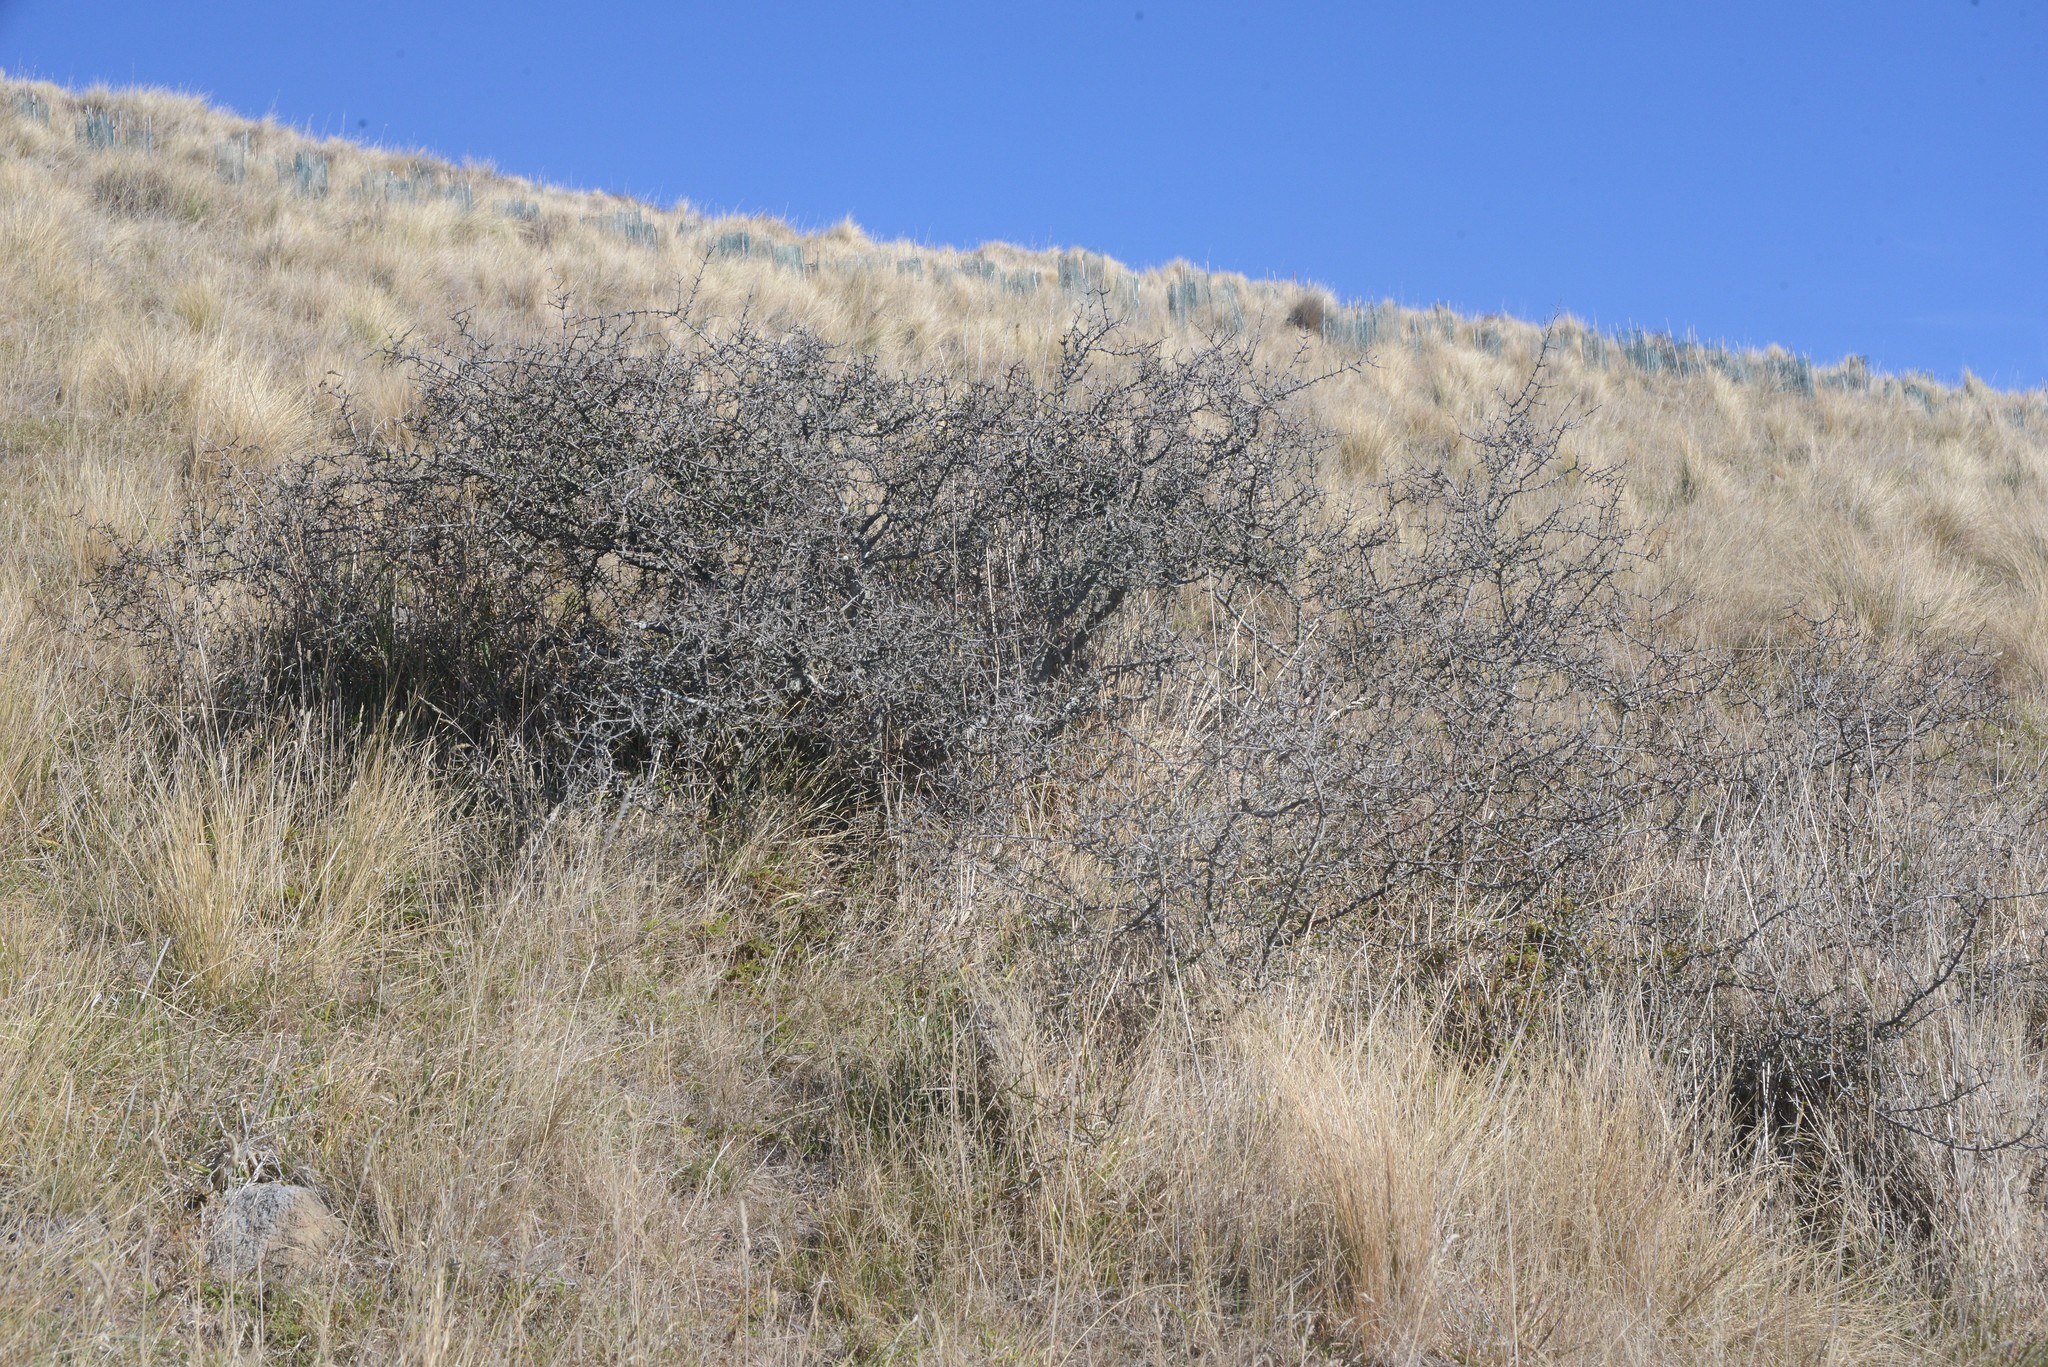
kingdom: Plantae
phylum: Tracheophyta
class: Magnoliopsida
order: Rosales
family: Rhamnaceae
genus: Discaria
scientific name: Discaria toumatou
